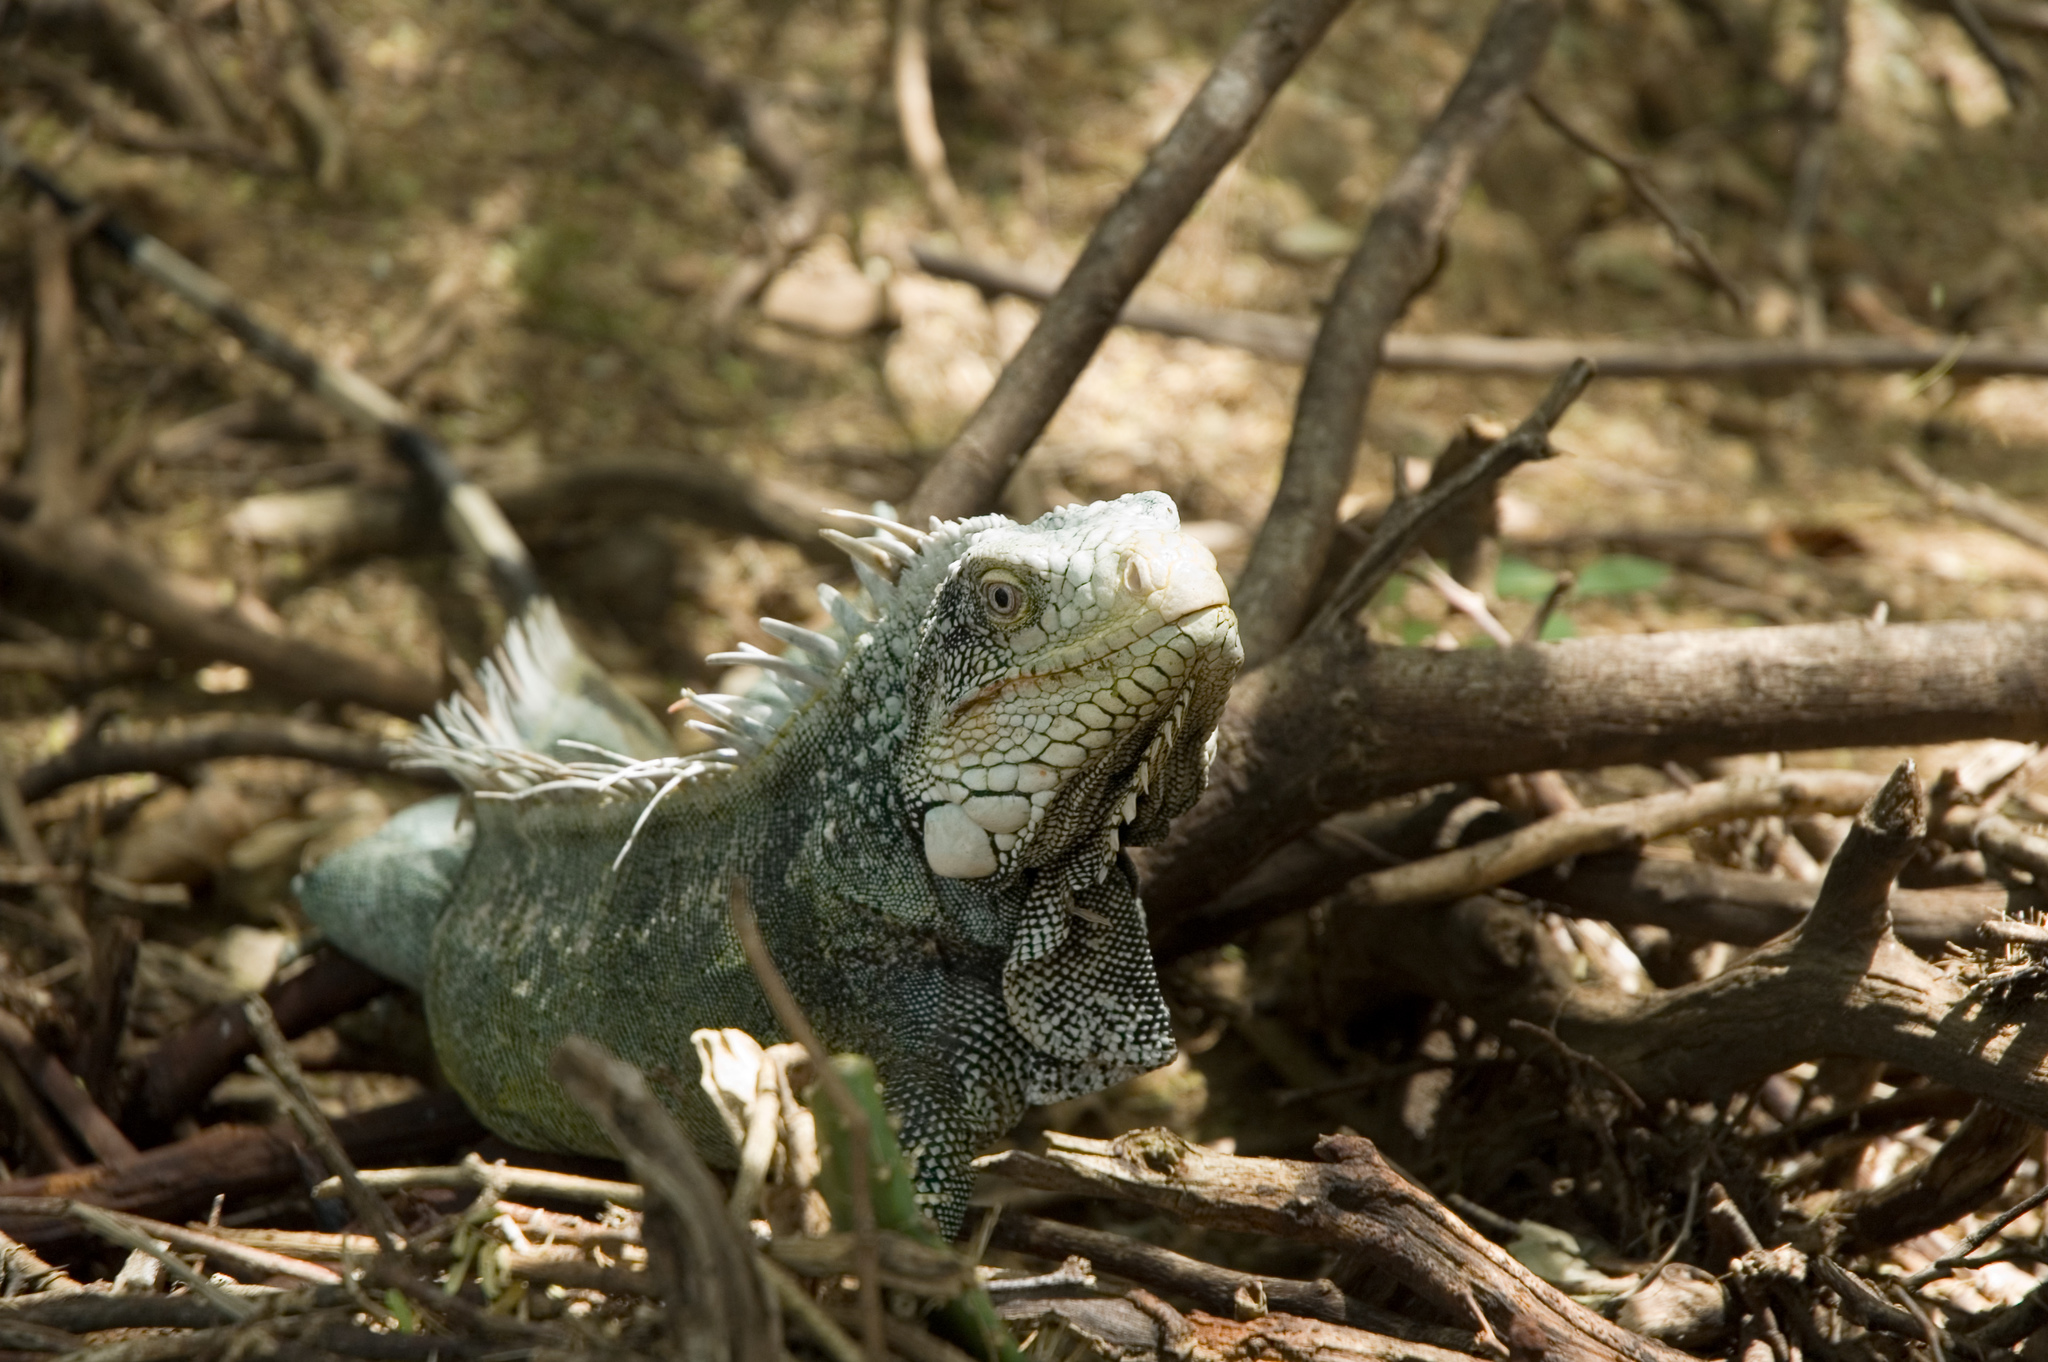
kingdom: Animalia
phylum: Chordata
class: Squamata
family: Iguanidae
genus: Iguana
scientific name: Iguana iguana
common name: Green iguana
